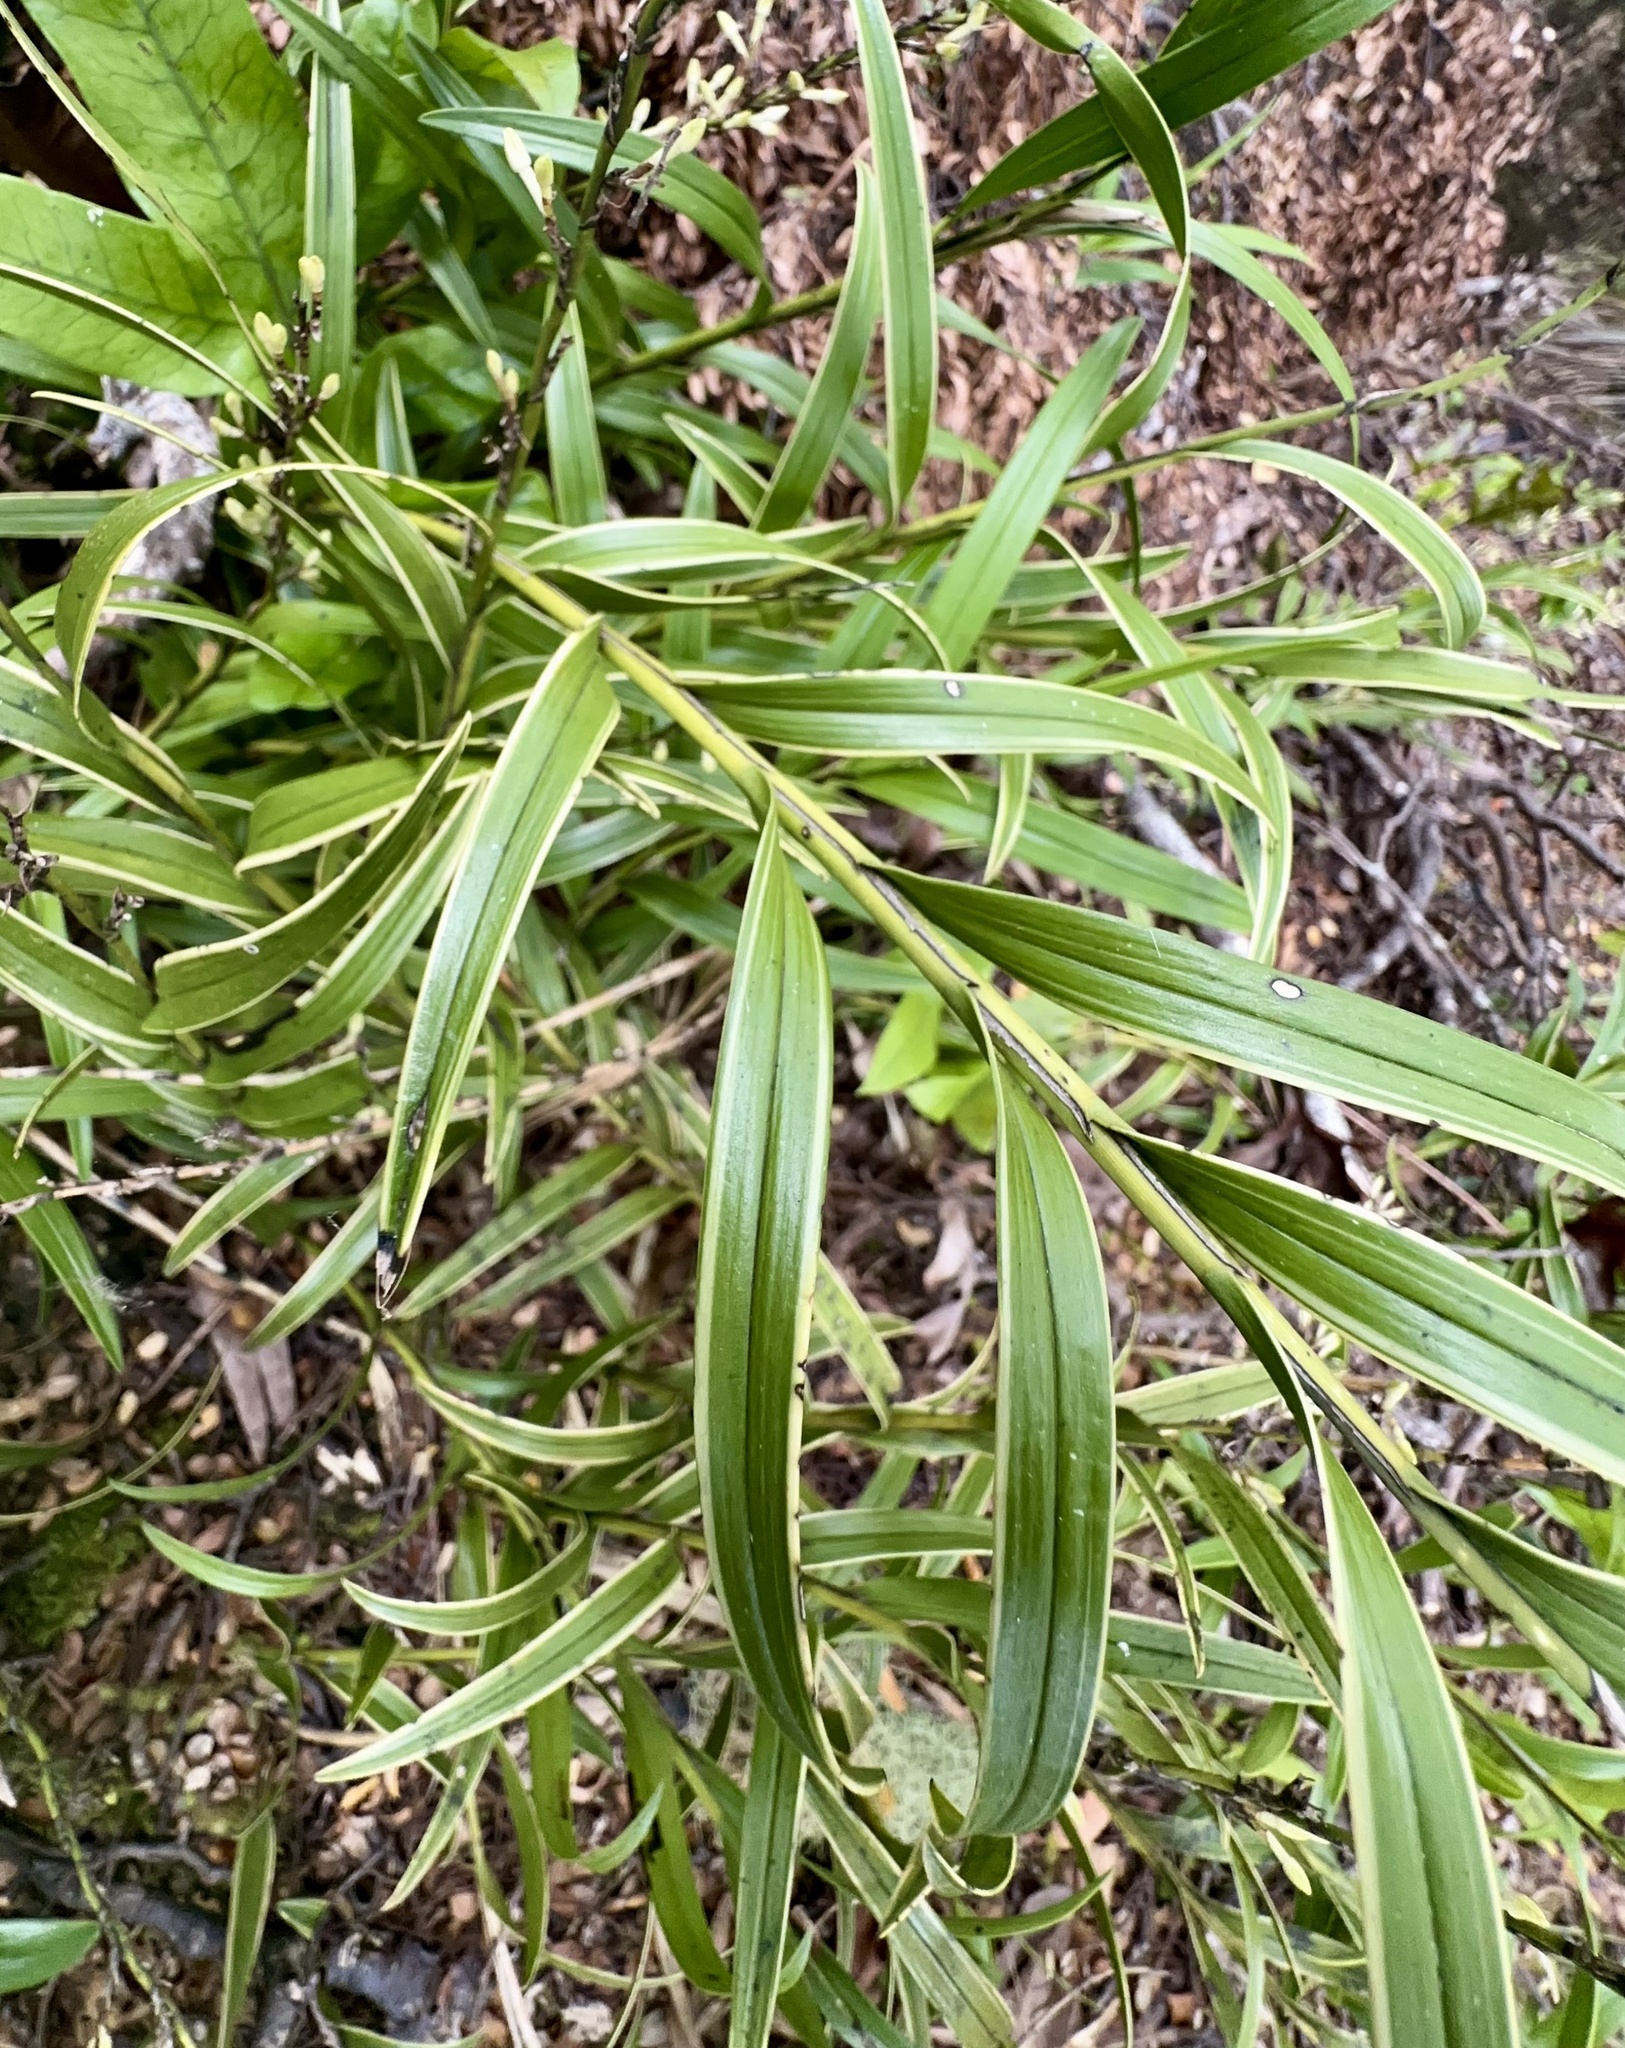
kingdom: Plantae
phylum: Tracheophyta
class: Liliopsida
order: Asparagales
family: Orchidaceae
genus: Earina
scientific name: Earina autumnalis
